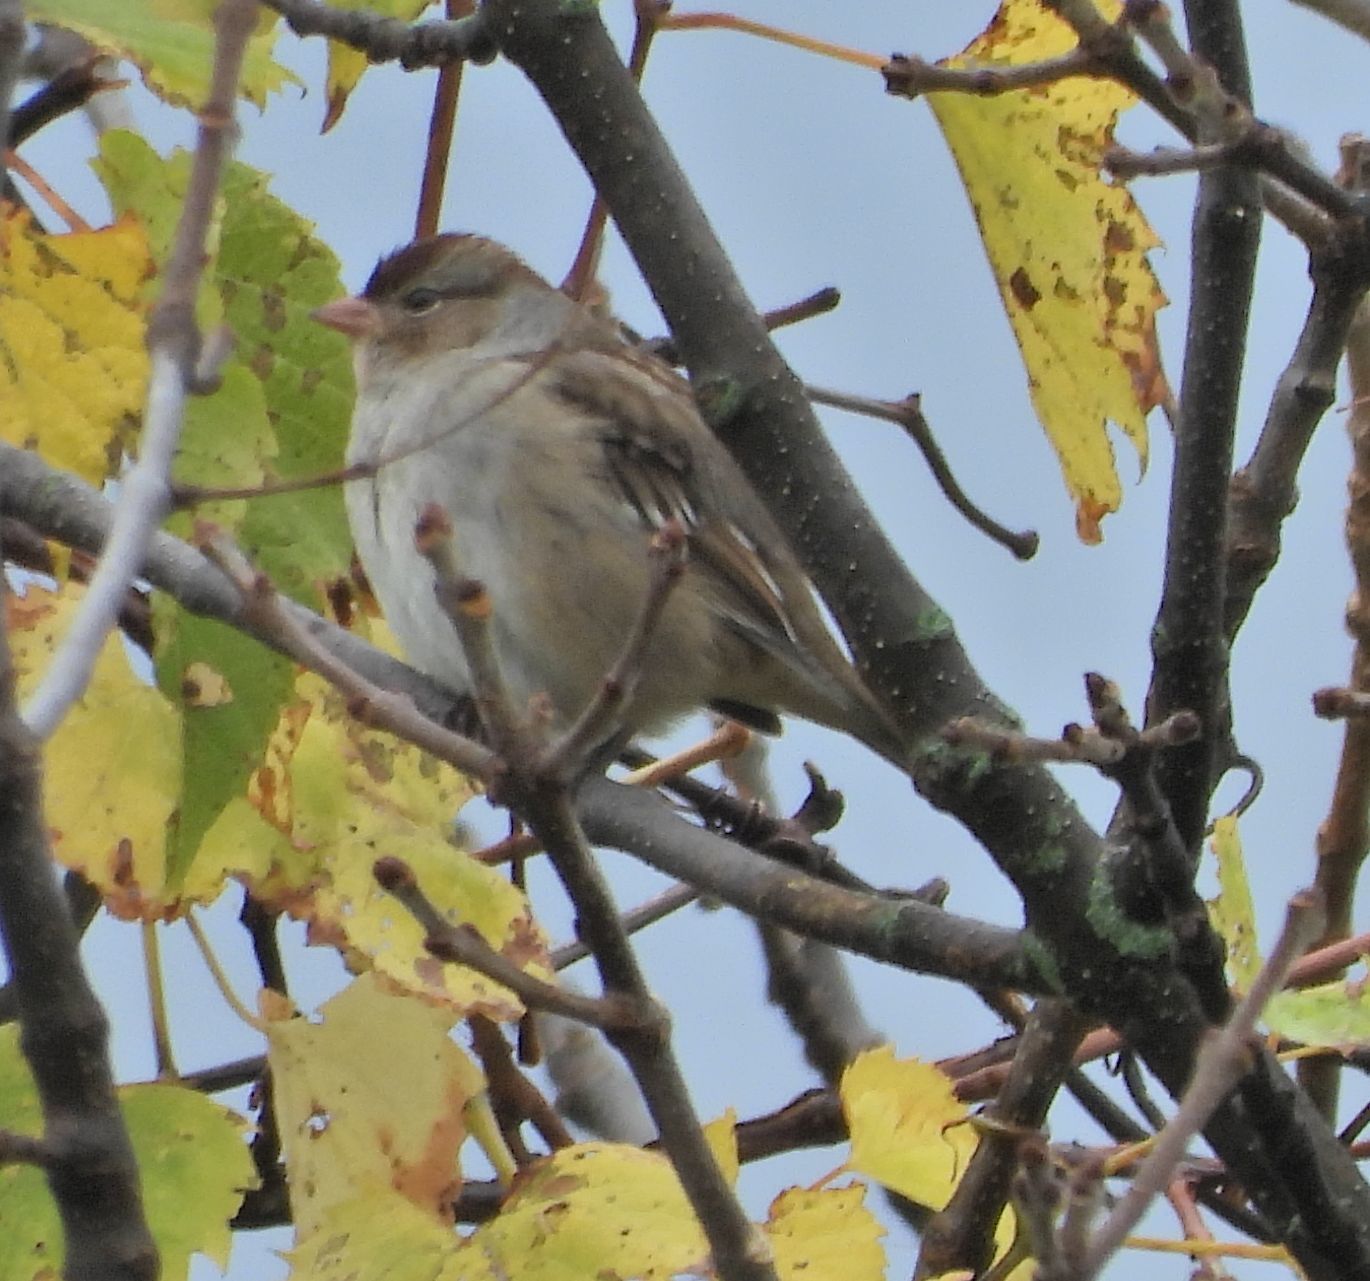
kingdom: Animalia
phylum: Chordata
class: Aves
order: Passeriformes
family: Passerellidae
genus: Zonotrichia
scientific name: Zonotrichia leucophrys
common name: White-crowned sparrow
